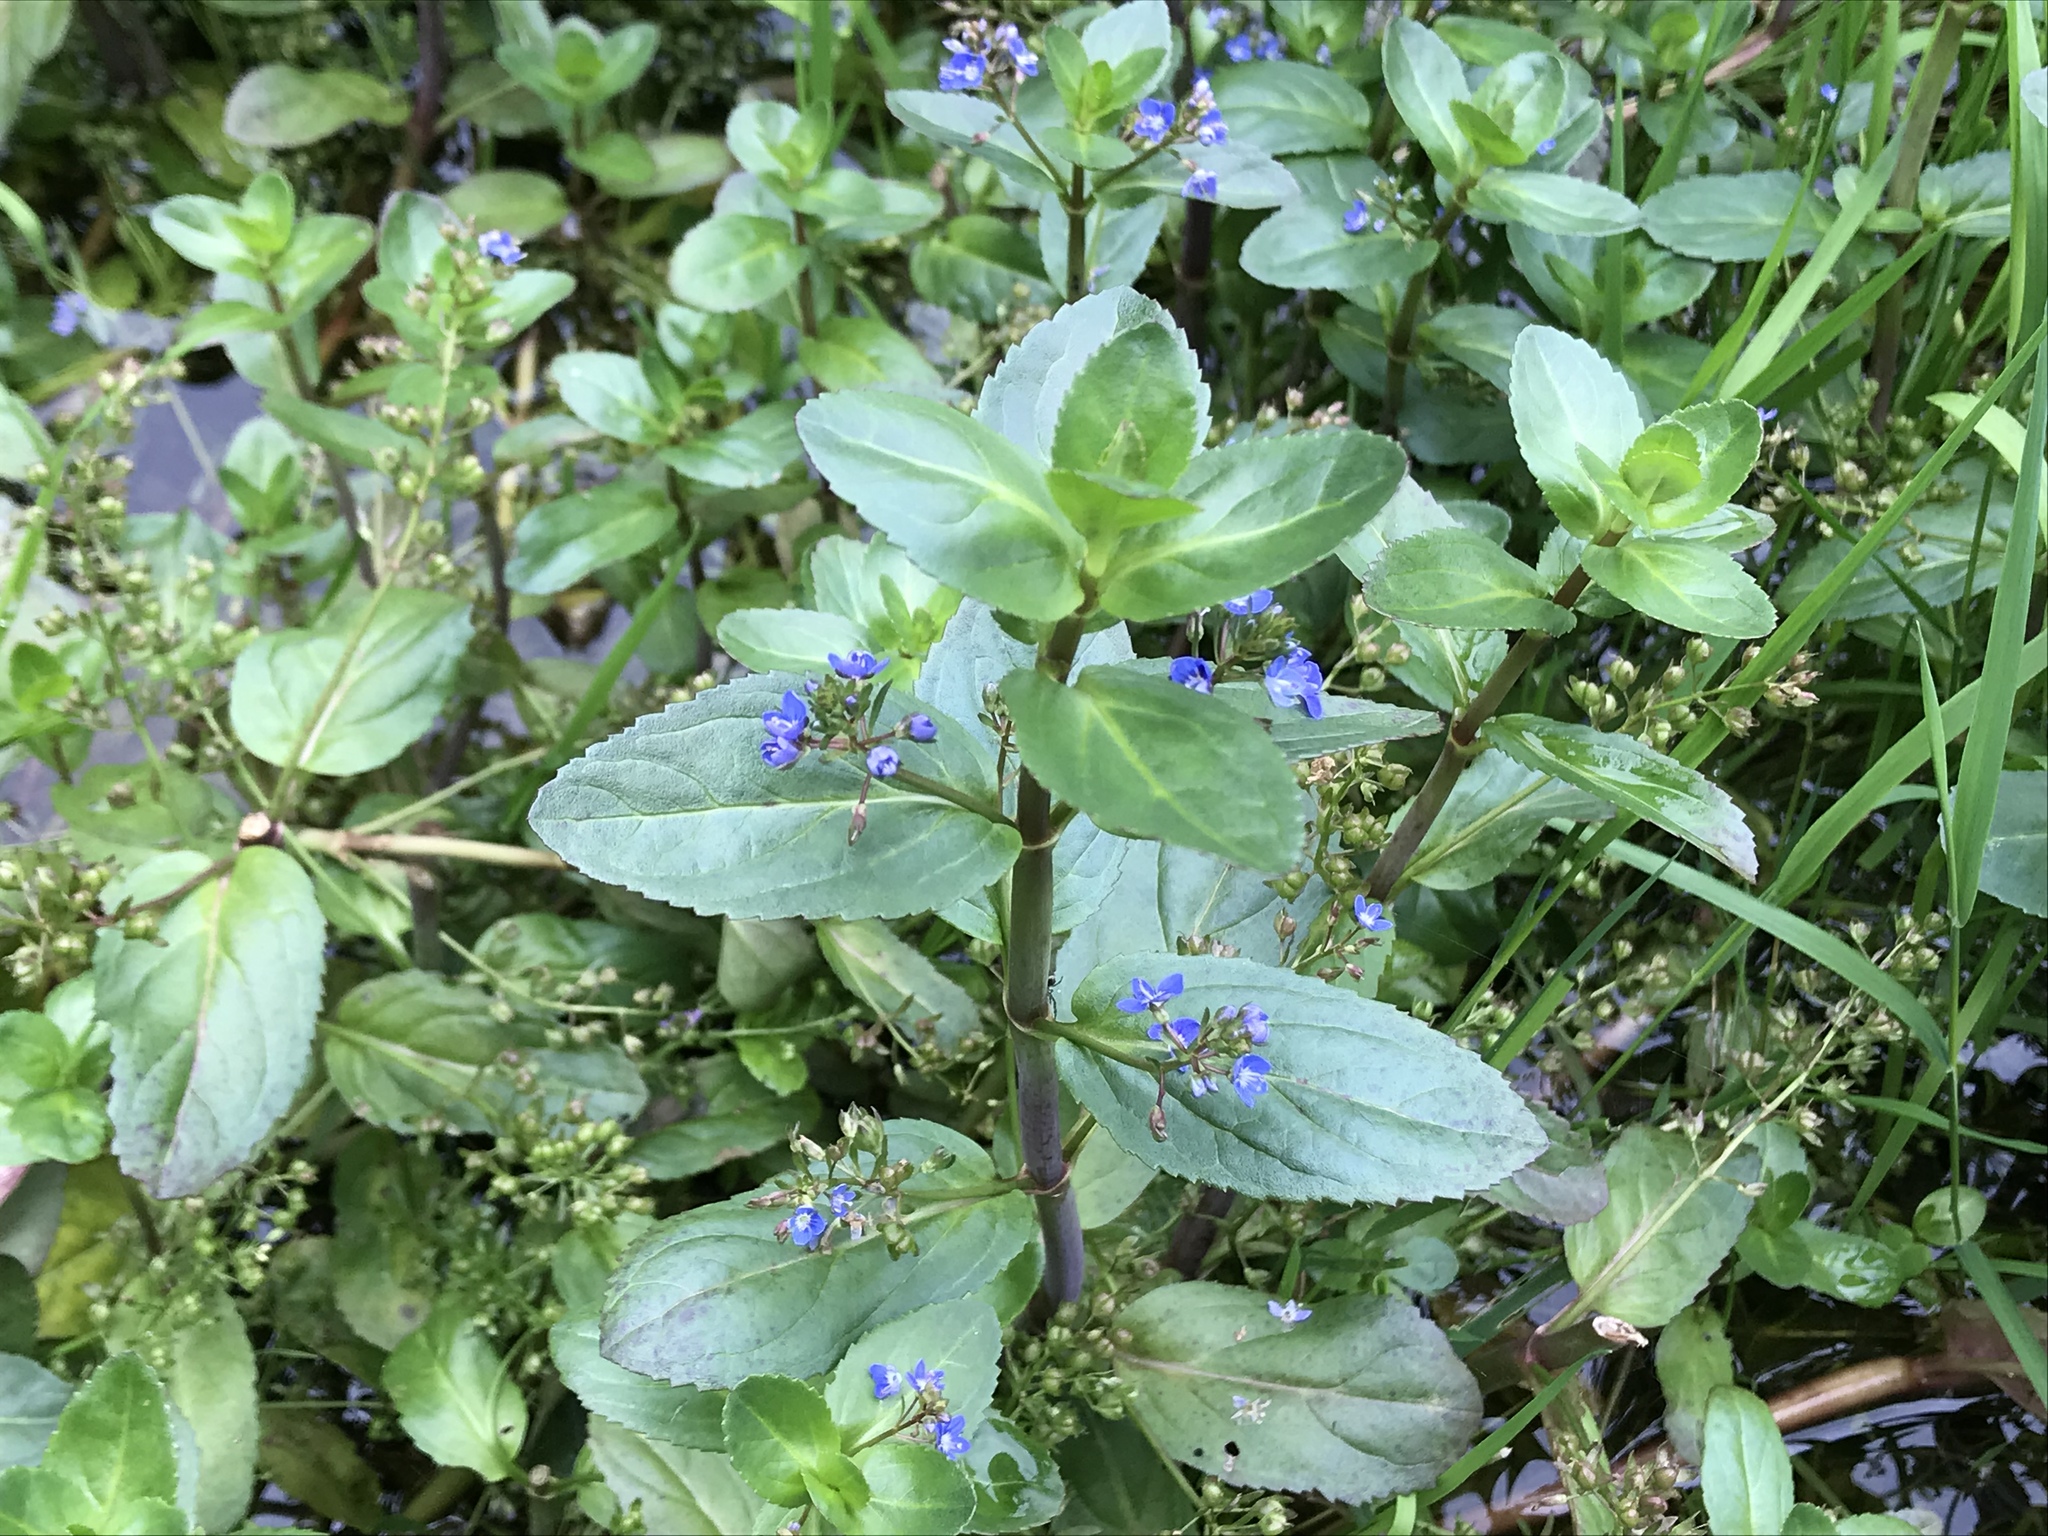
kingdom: Plantae
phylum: Tracheophyta
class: Magnoliopsida
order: Lamiales
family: Plantaginaceae
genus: Veronica
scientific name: Veronica beccabunga
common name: Brooklime
